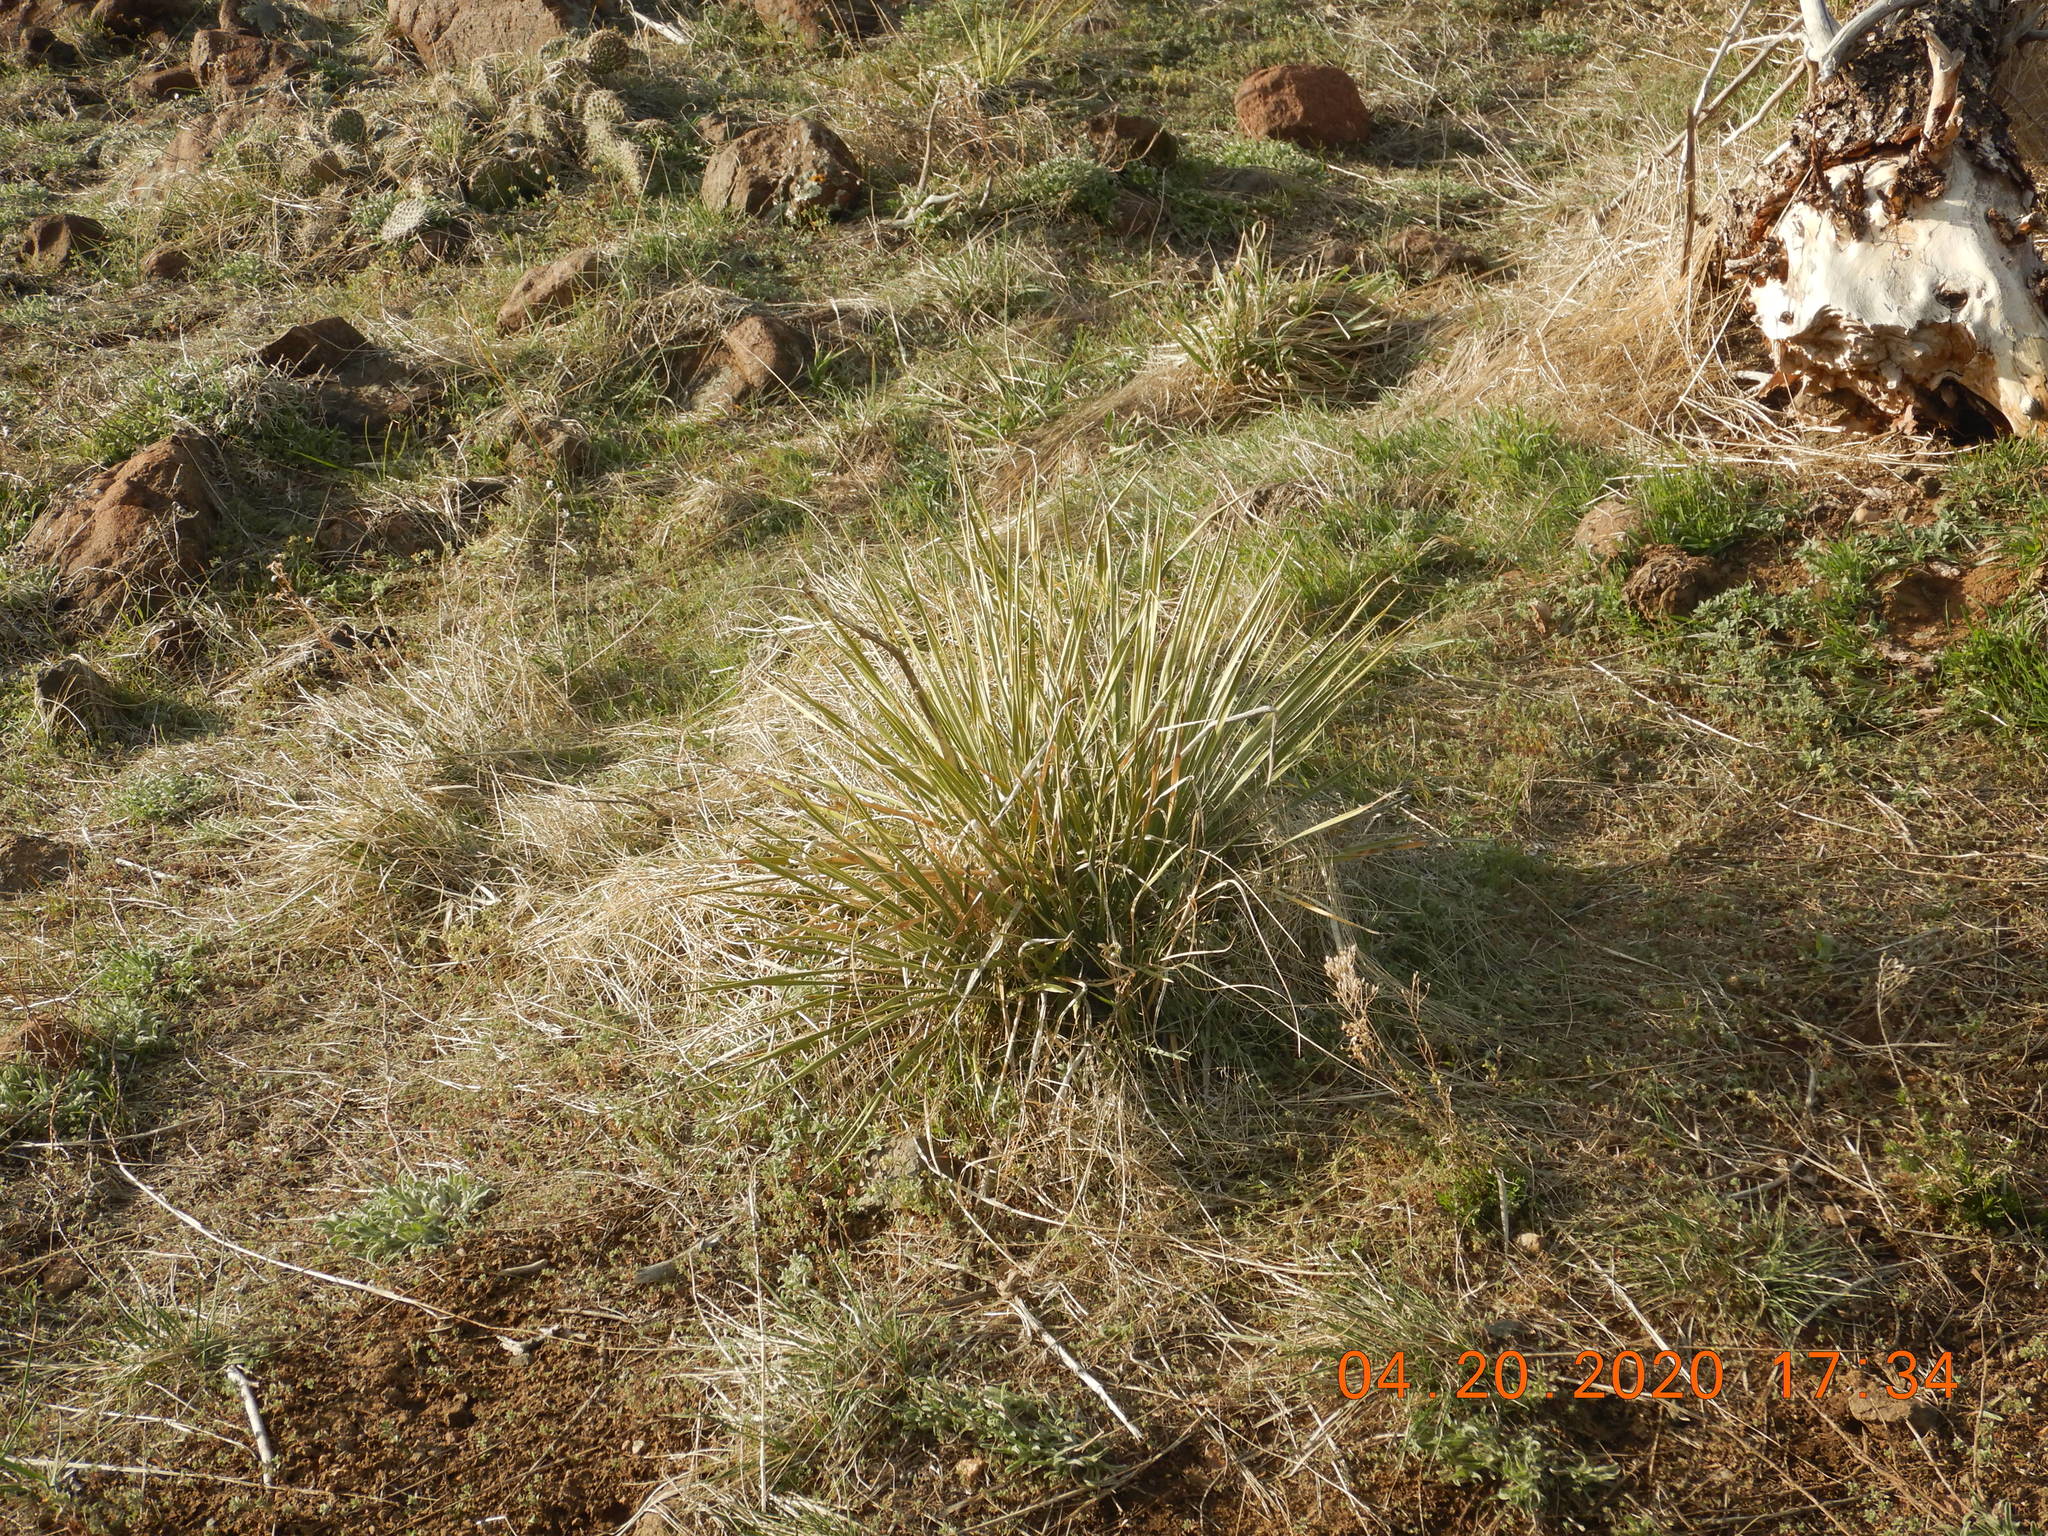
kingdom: Plantae
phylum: Tracheophyta
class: Liliopsida
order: Asparagales
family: Asparagaceae
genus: Yucca
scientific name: Yucca glauca
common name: Great plains yucca
